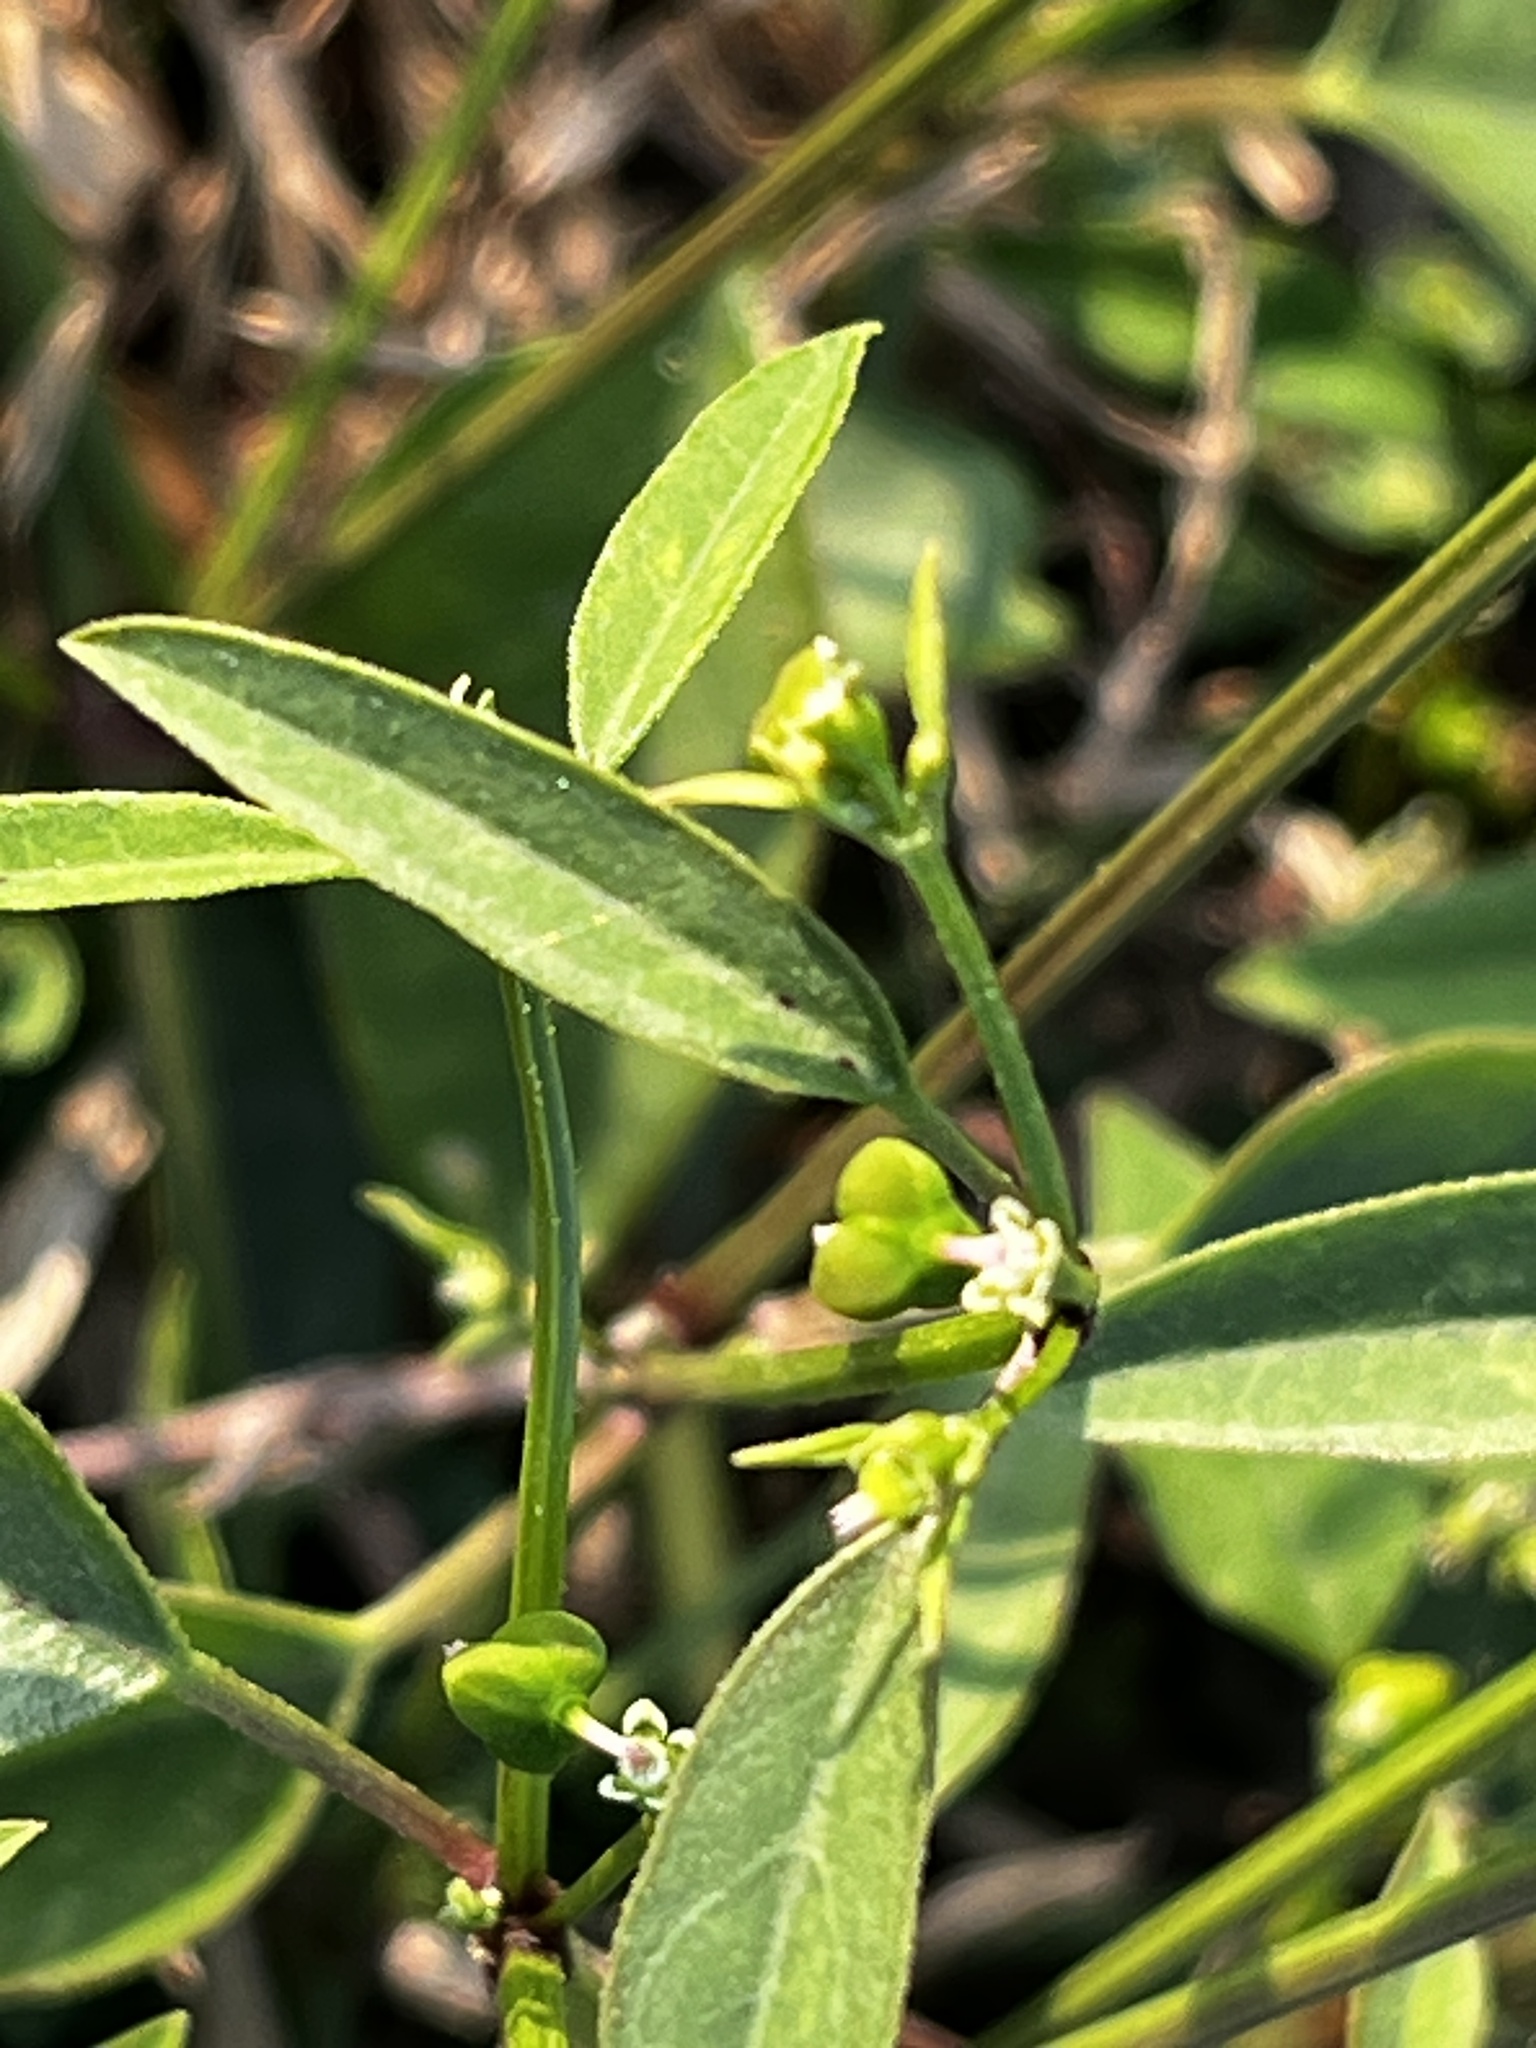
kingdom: Plantae
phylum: Tracheophyta
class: Magnoliopsida
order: Malpighiales
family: Euphorbiaceae
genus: Euphorbia
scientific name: Euphorbia graminea
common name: Grassleaf spurge
